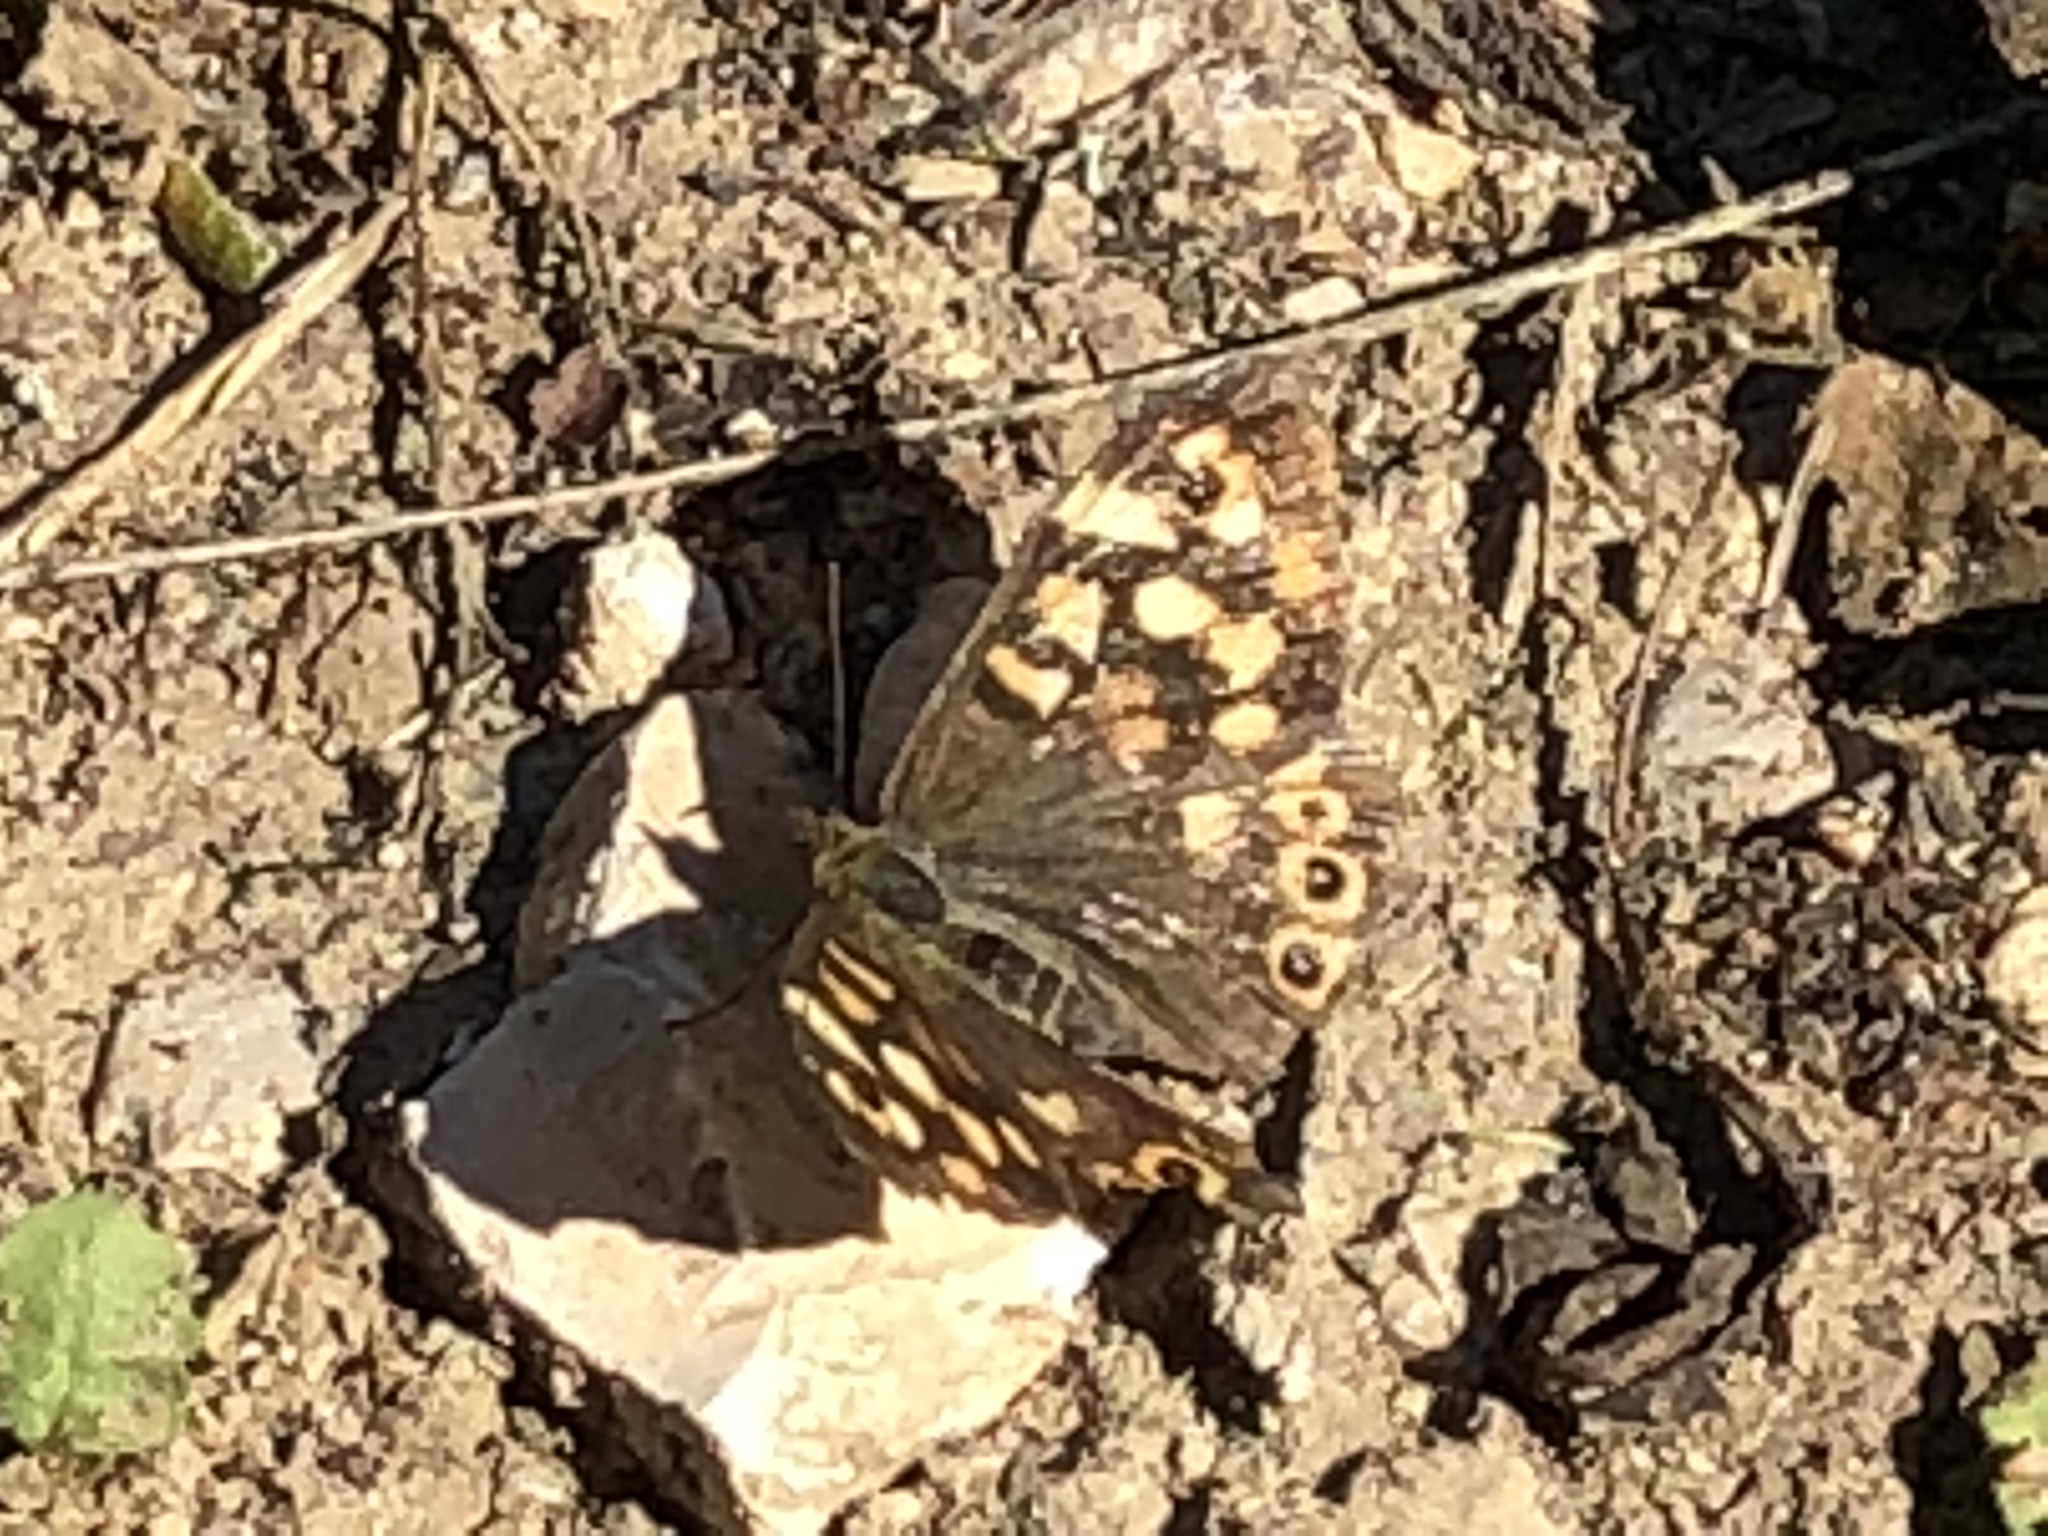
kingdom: Animalia
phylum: Arthropoda
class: Insecta
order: Lepidoptera
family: Nymphalidae
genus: Pararge
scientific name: Pararge aegeria
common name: Speckled wood
